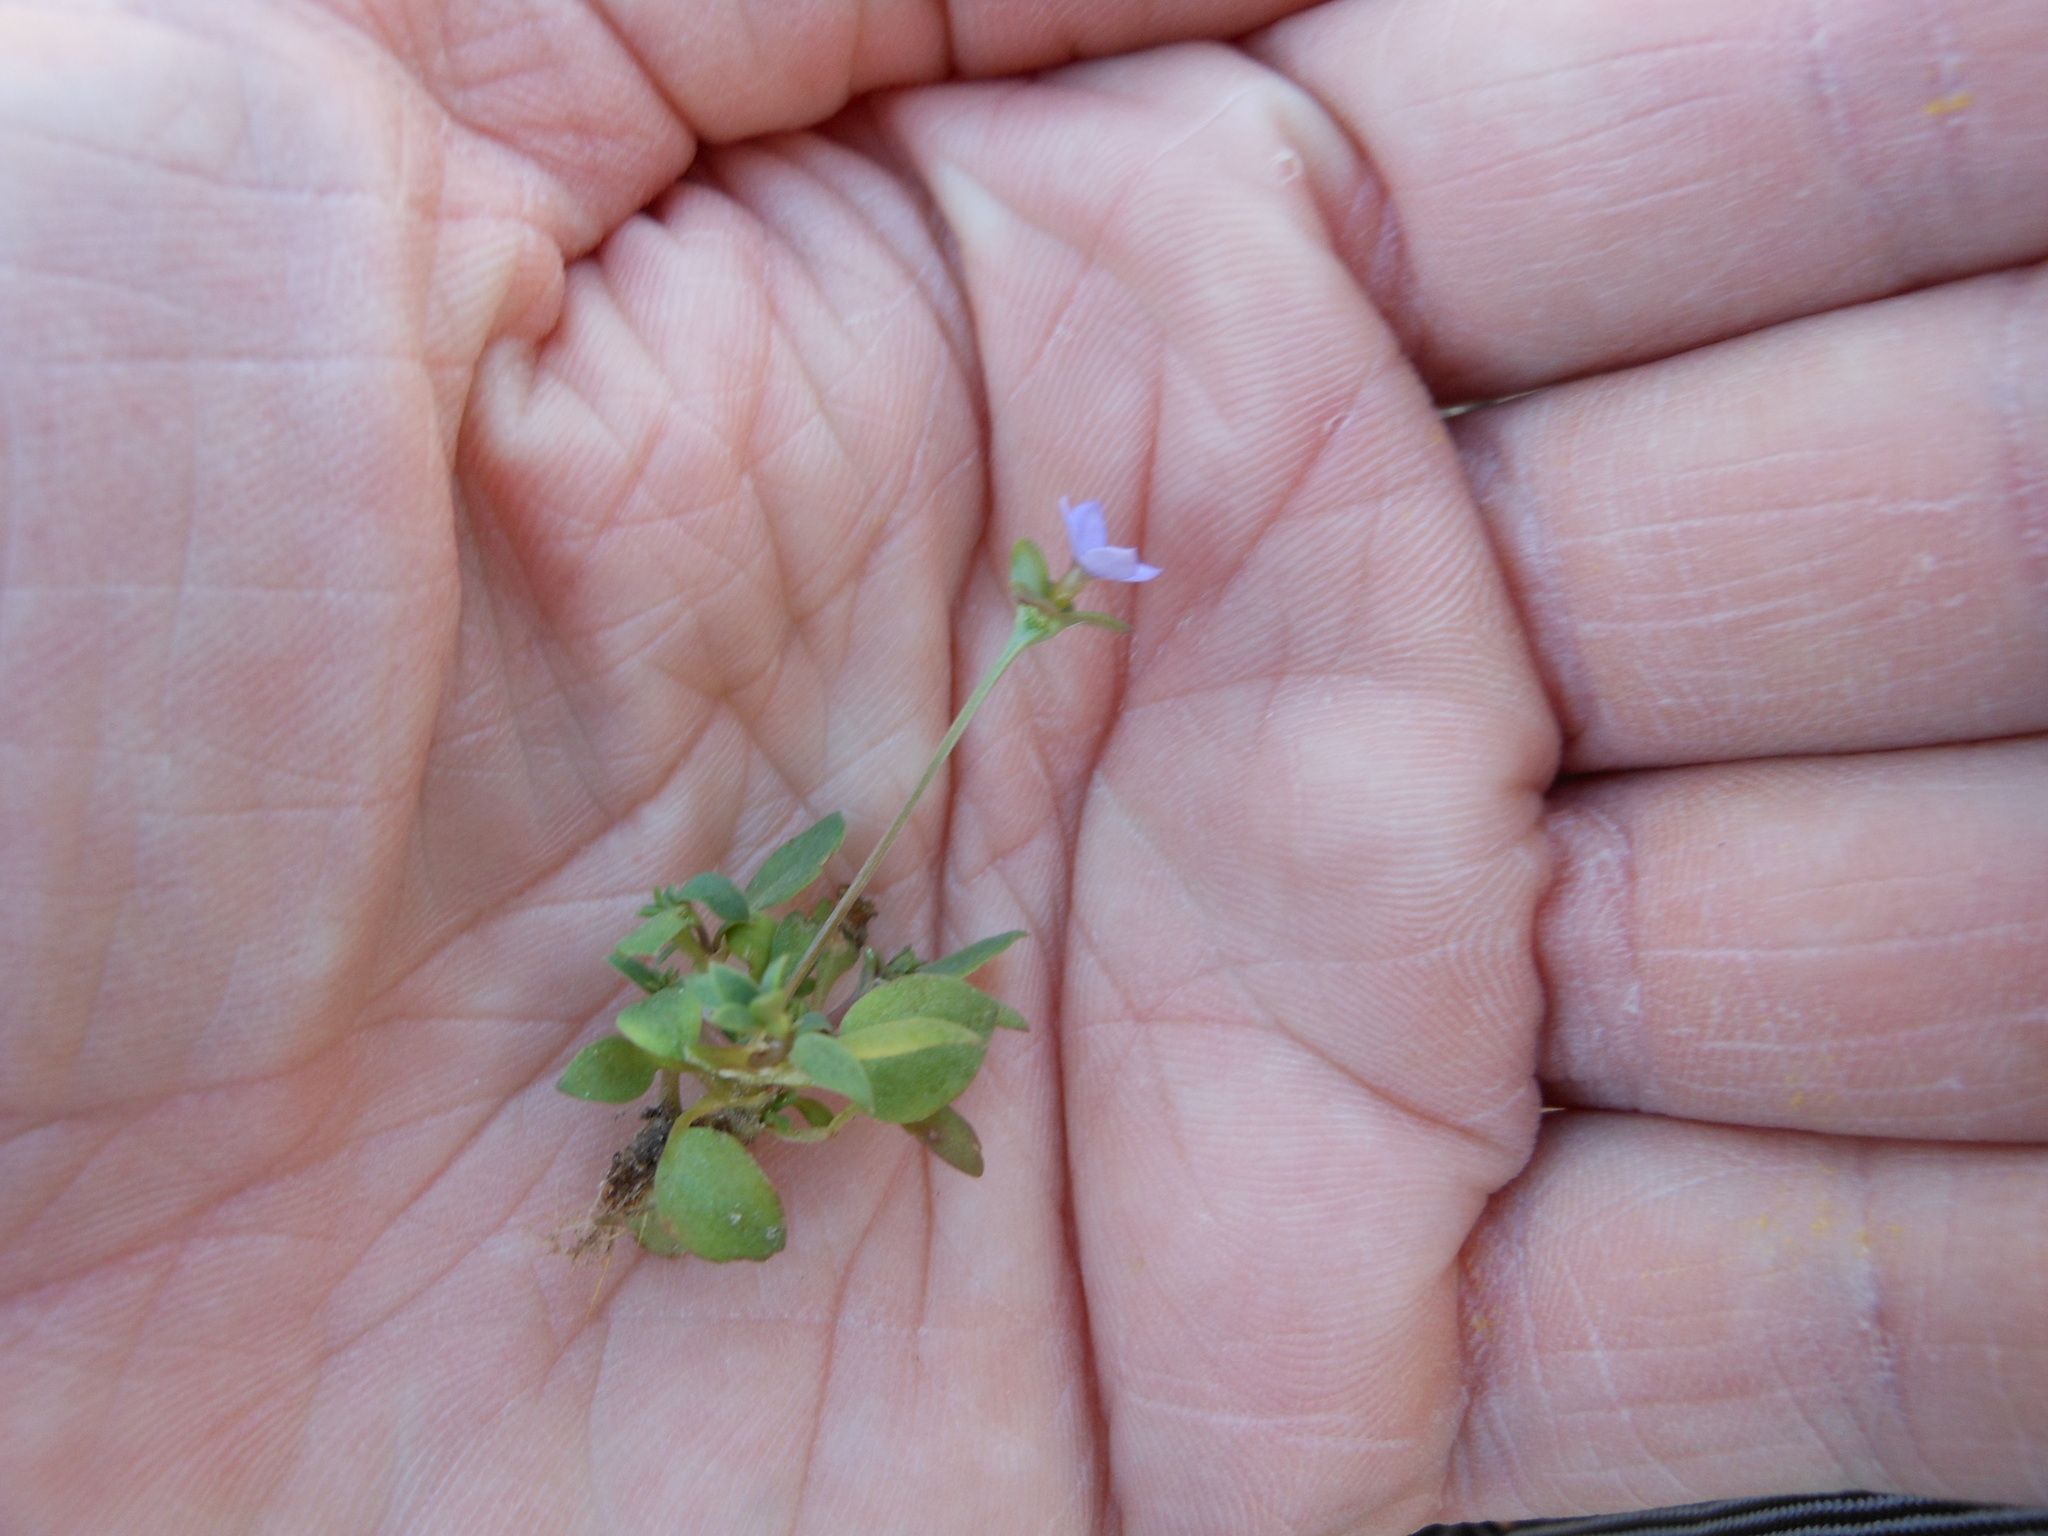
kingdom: Plantae
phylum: Tracheophyta
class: Magnoliopsida
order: Gentianales
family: Rubiaceae
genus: Houstonia
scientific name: Houstonia pusilla
